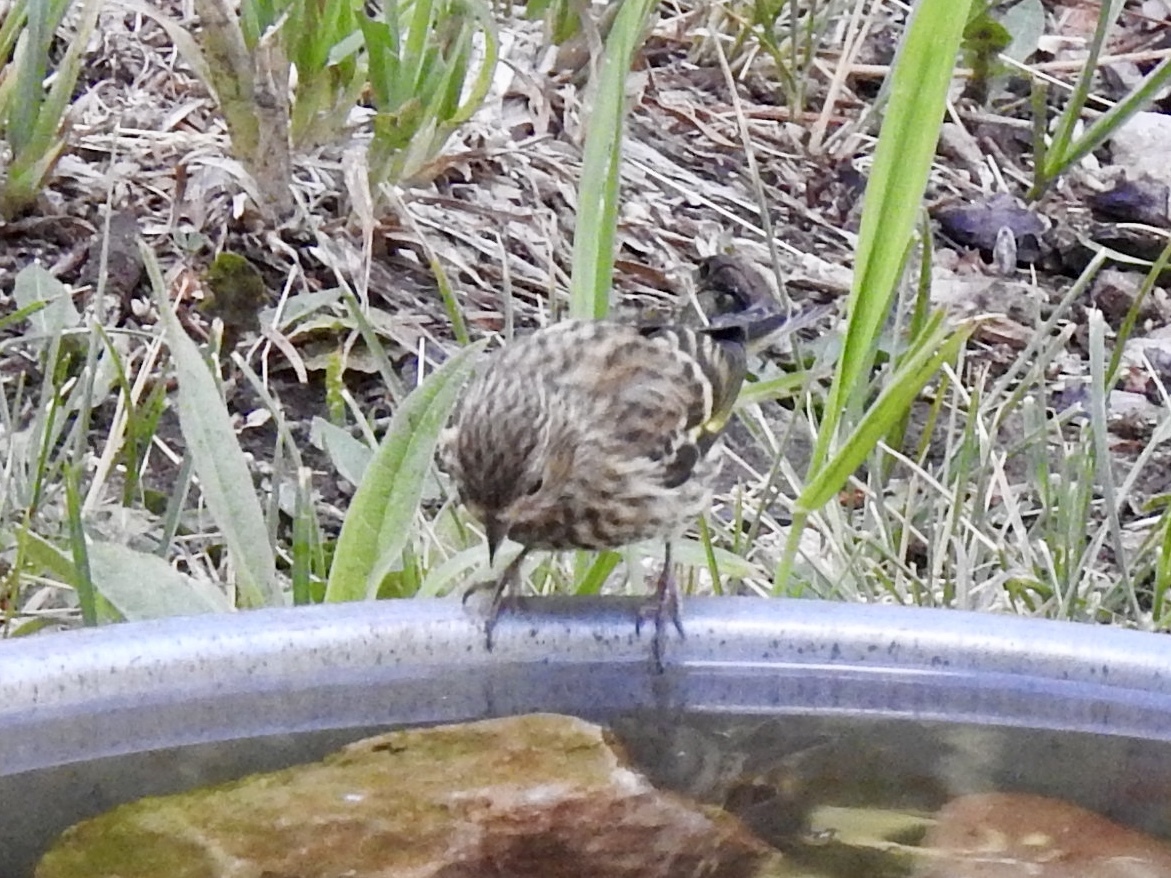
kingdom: Animalia
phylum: Chordata
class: Aves
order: Passeriformes
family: Fringillidae
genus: Spinus
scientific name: Spinus pinus
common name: Pine siskin
